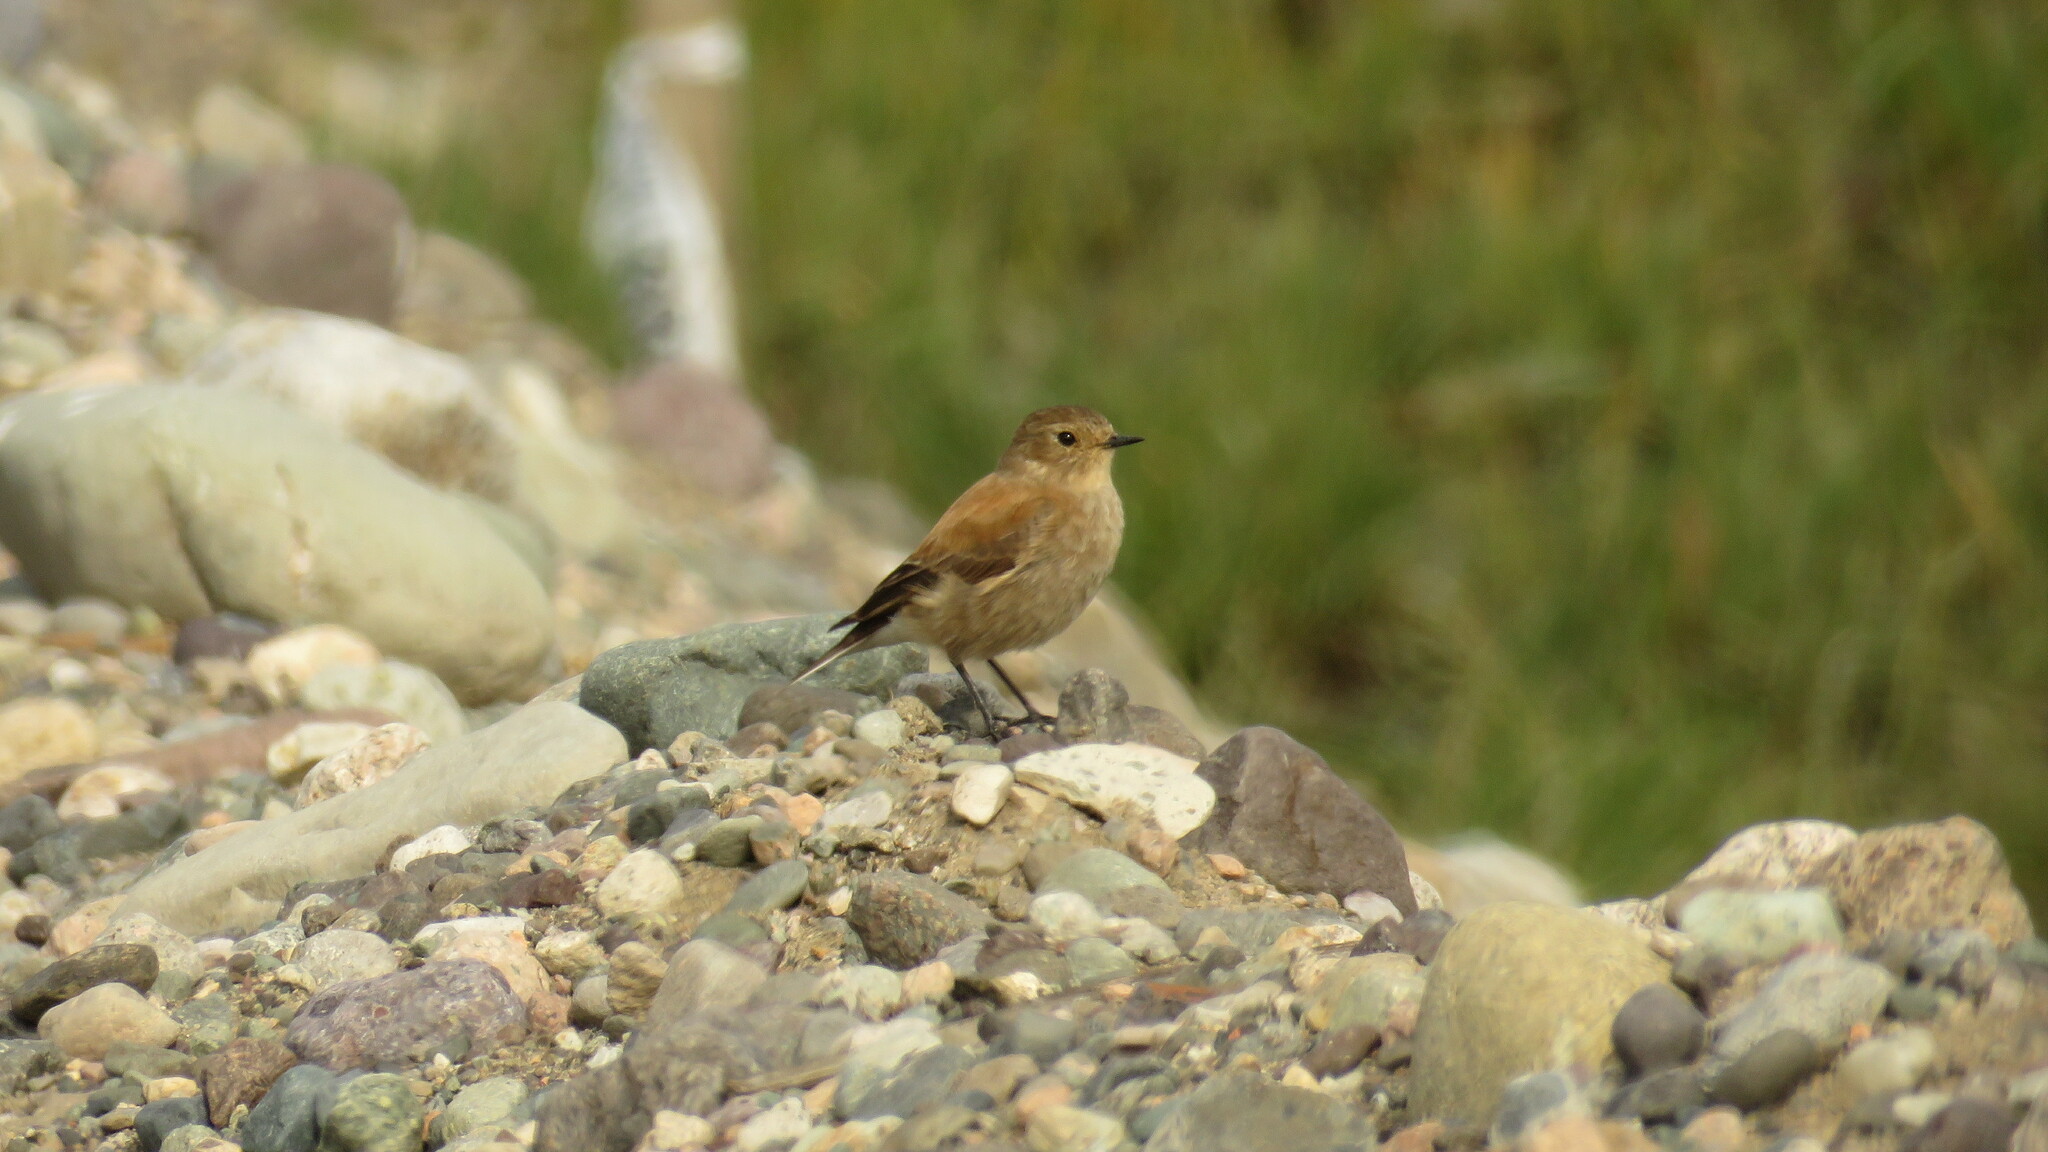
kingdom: Animalia
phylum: Chordata
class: Aves
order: Passeriformes
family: Tyrannidae
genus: Lessonia
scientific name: Lessonia rufa
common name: Austral negrito
